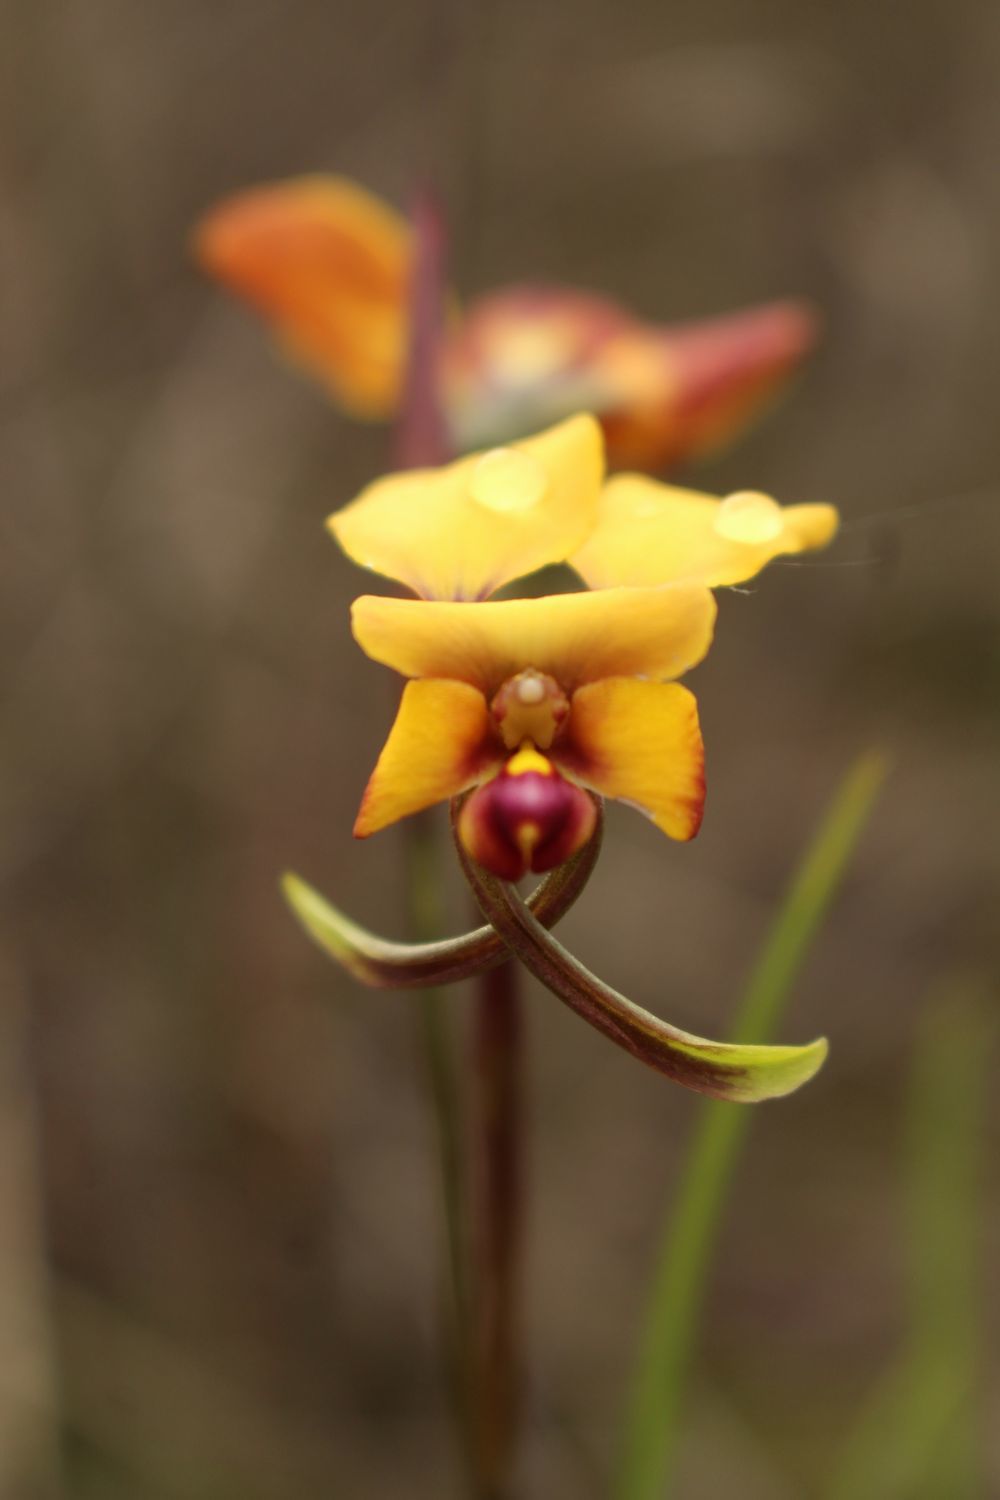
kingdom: Plantae
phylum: Tracheophyta
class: Liliopsida
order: Asparagales
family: Orchidaceae
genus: Diuris
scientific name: Diuris littoralis
